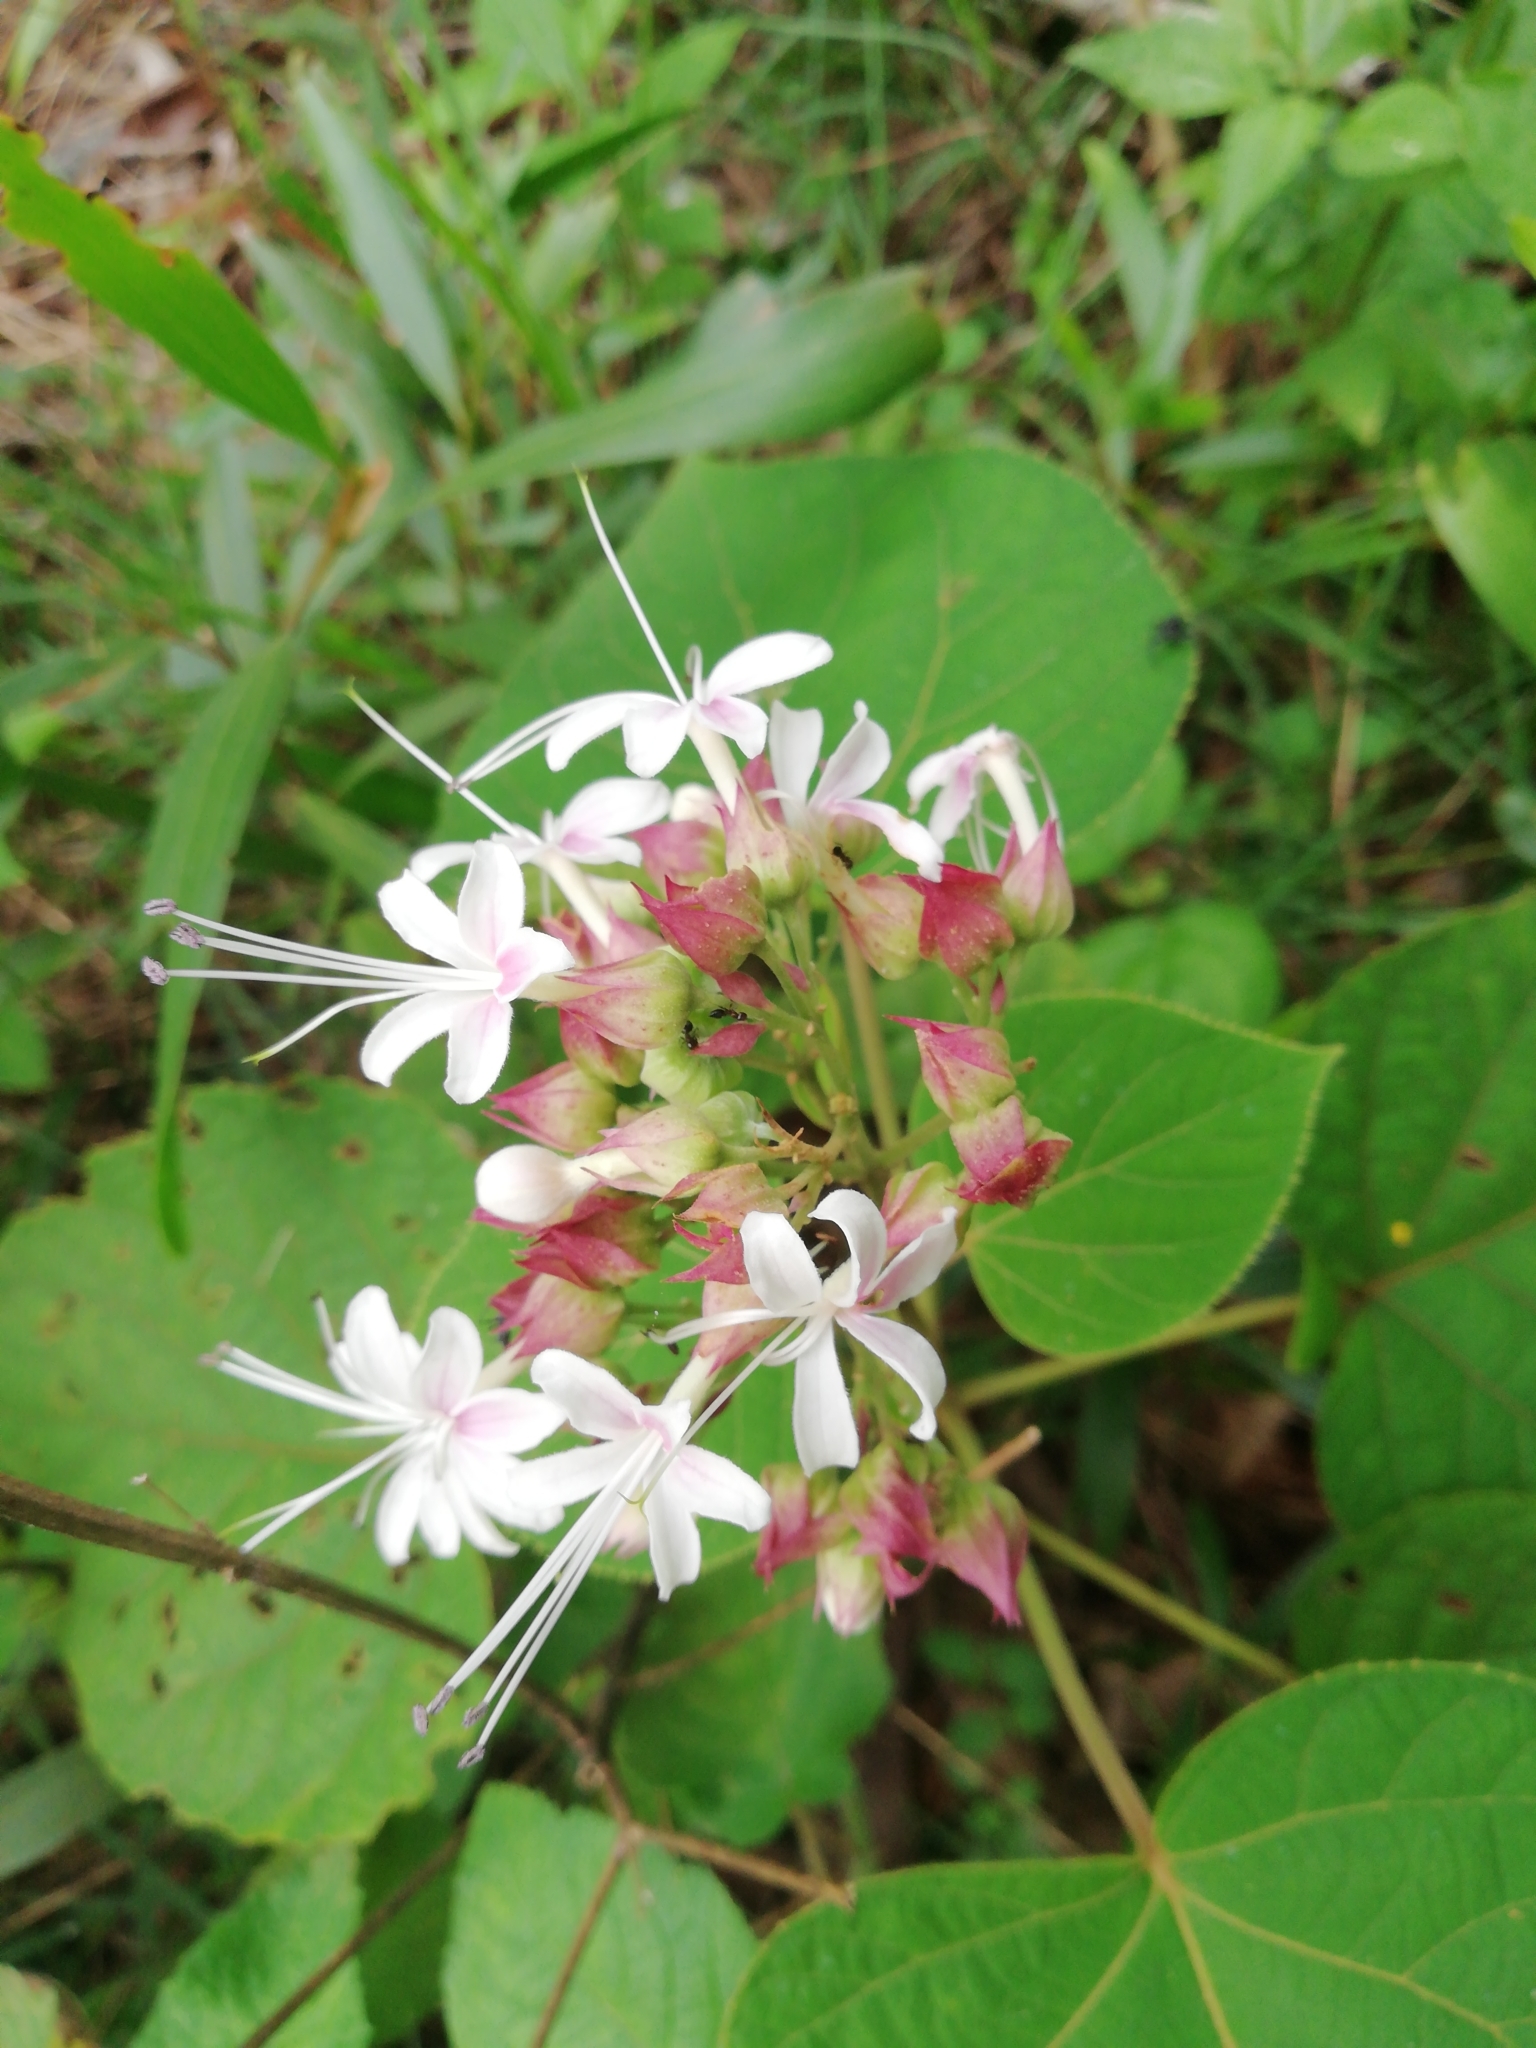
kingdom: Plantae
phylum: Tracheophyta
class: Magnoliopsida
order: Lamiales
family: Lamiaceae
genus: Clerodendrum
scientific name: Clerodendrum infortunatum
